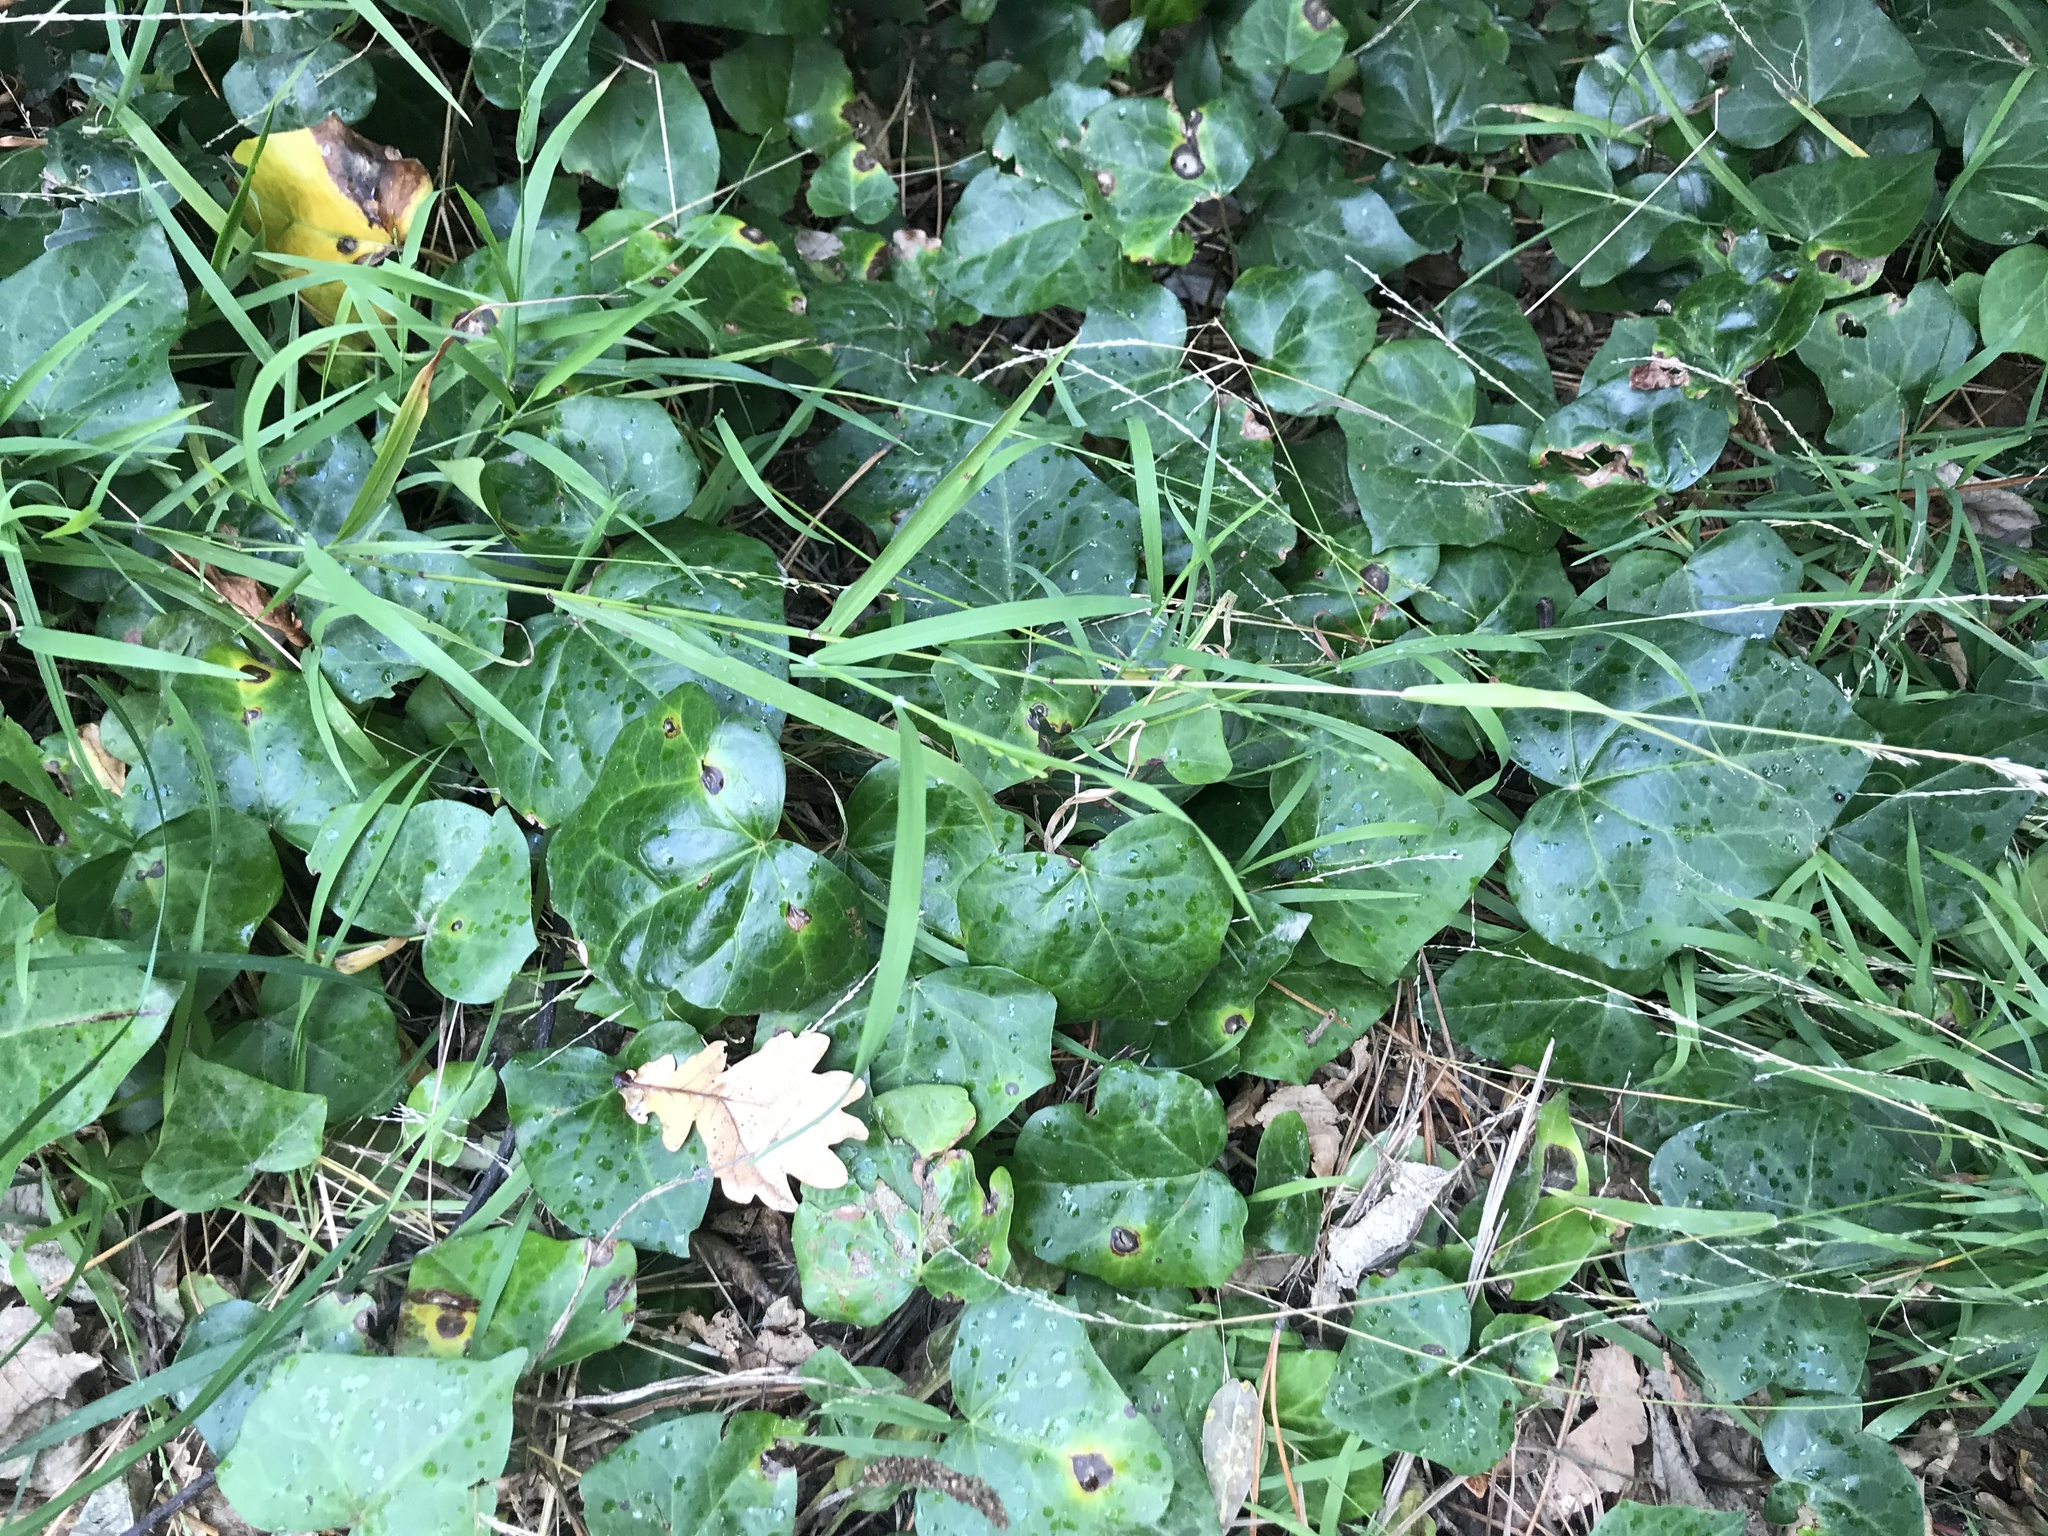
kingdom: Plantae
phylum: Tracheophyta
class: Magnoliopsida
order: Apiales
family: Araliaceae
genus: Hedera
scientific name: Hedera helix
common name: Ivy
